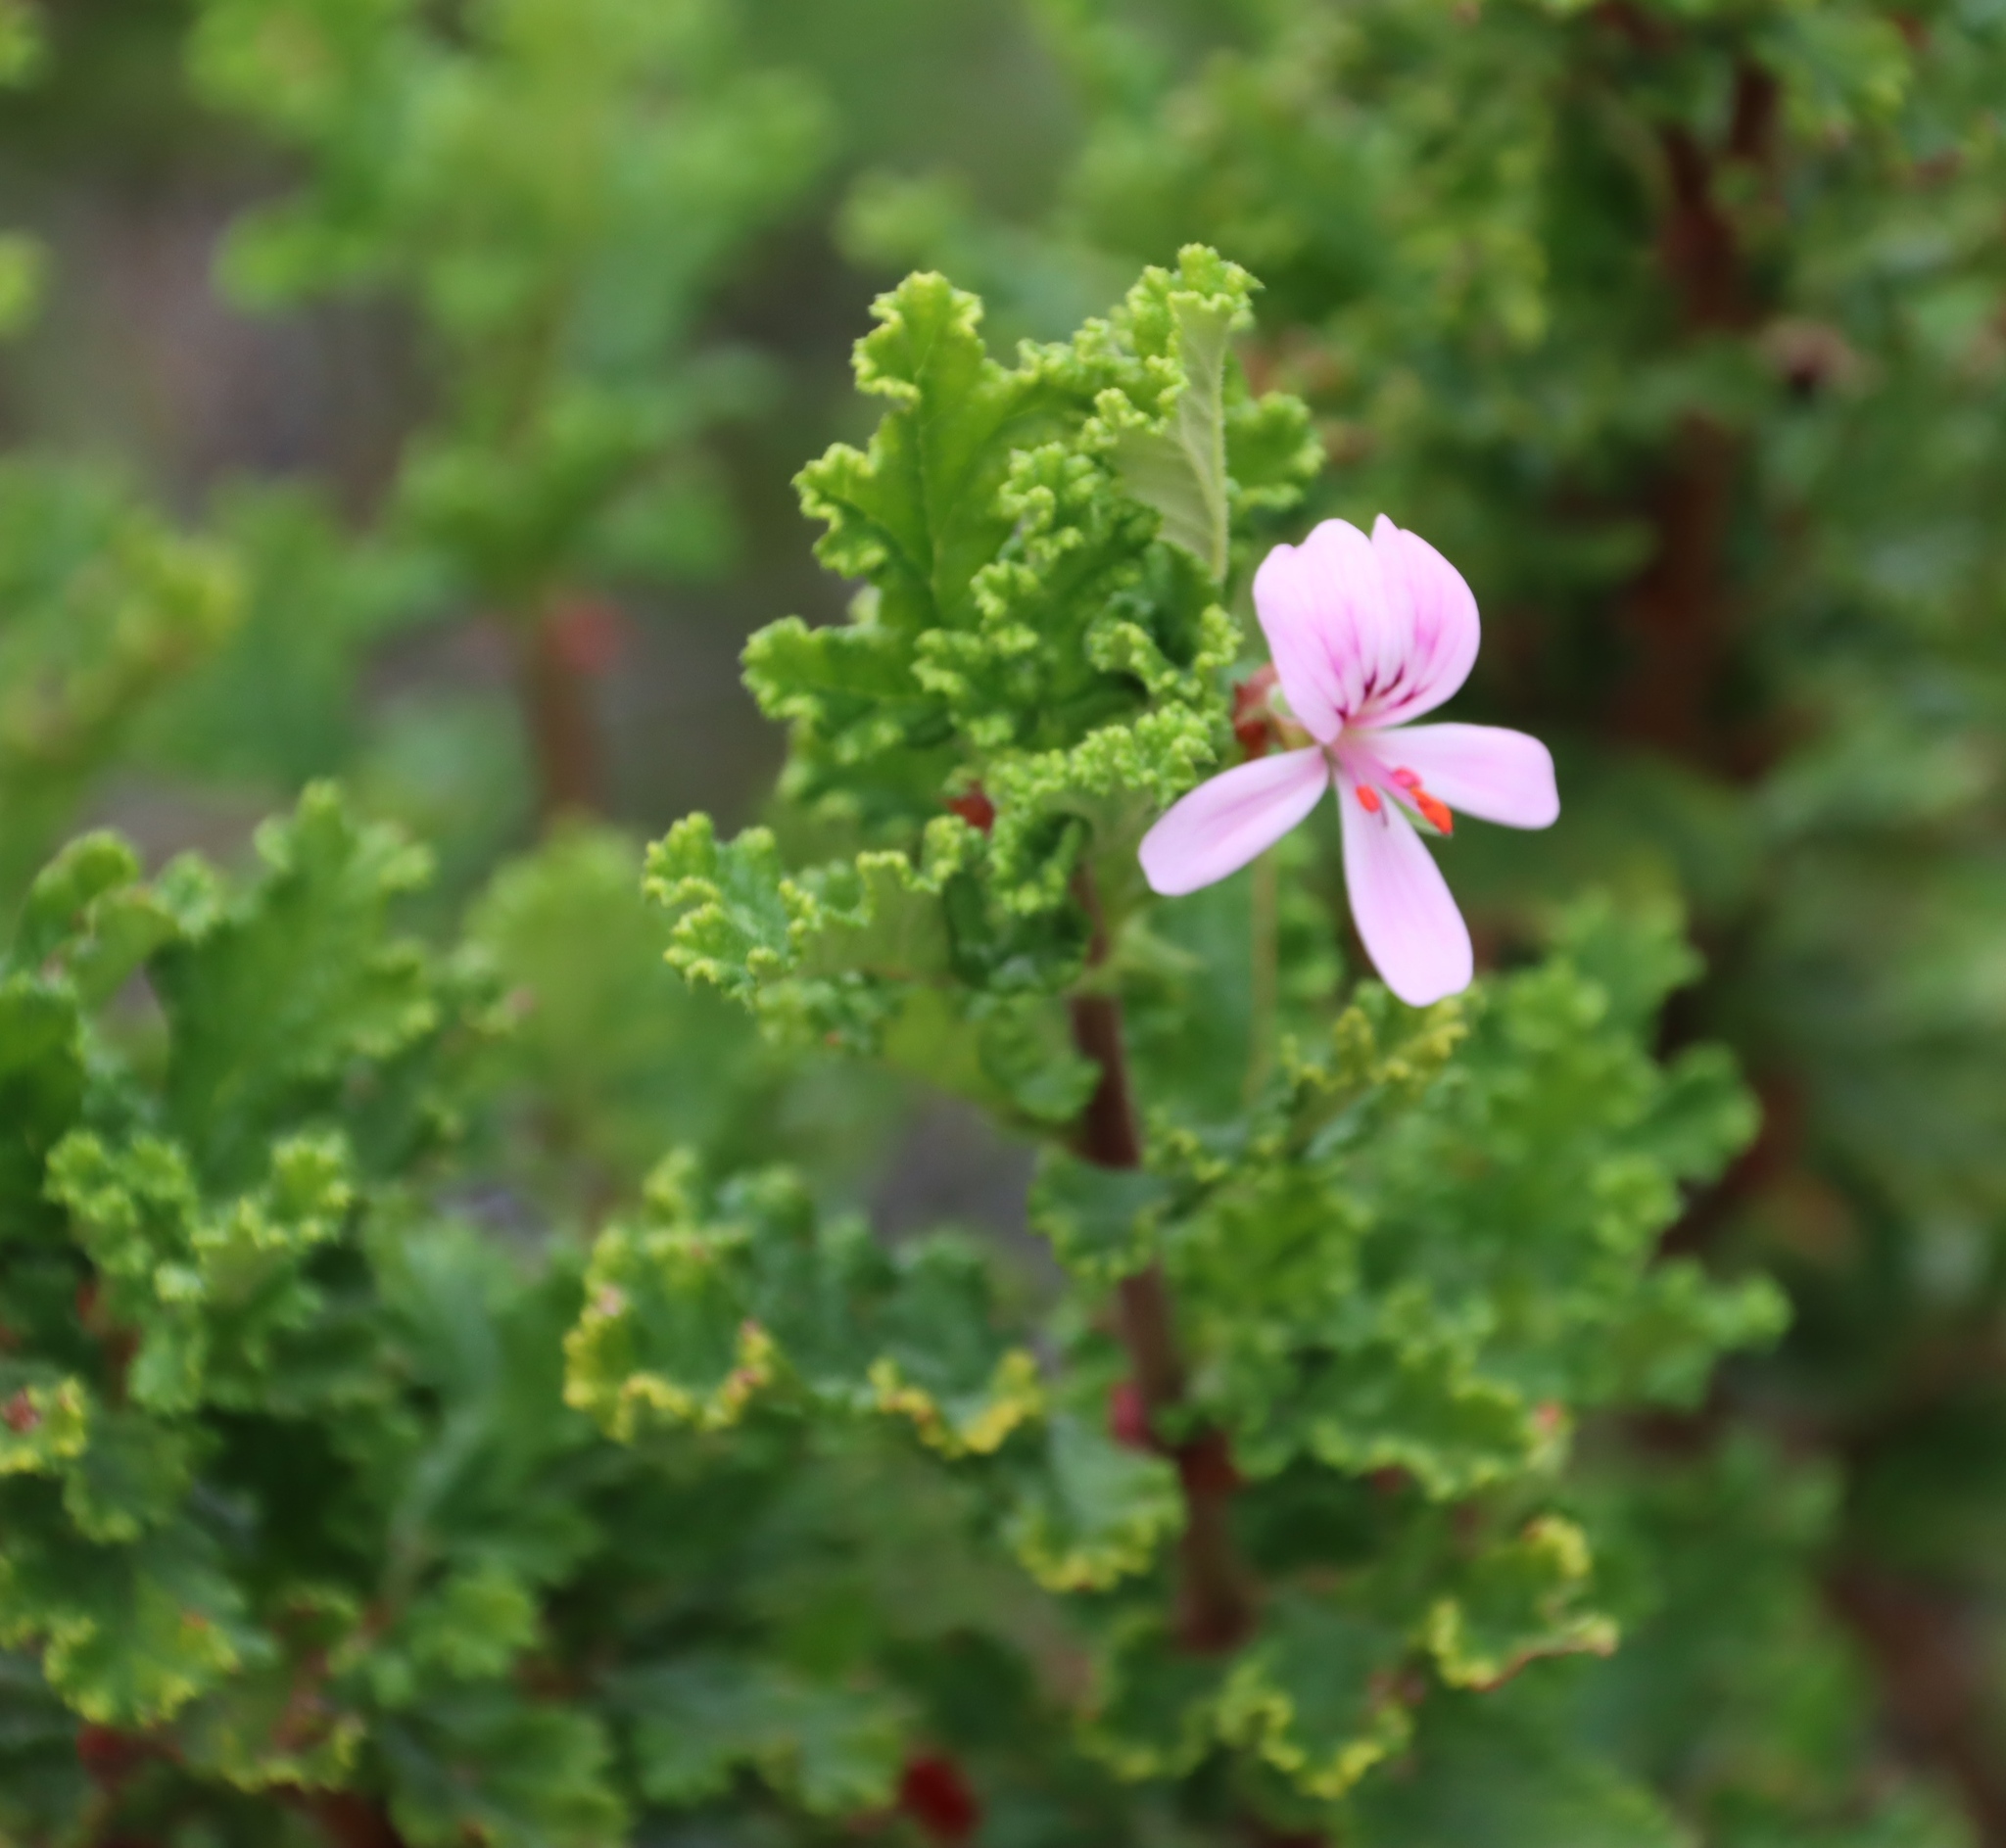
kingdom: Plantae
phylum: Tracheophyta
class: Magnoliopsida
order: Geraniales
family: Geraniaceae
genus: Pelargonium
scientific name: Pelargonium panduriforme
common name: Oakleaf garden geranium
